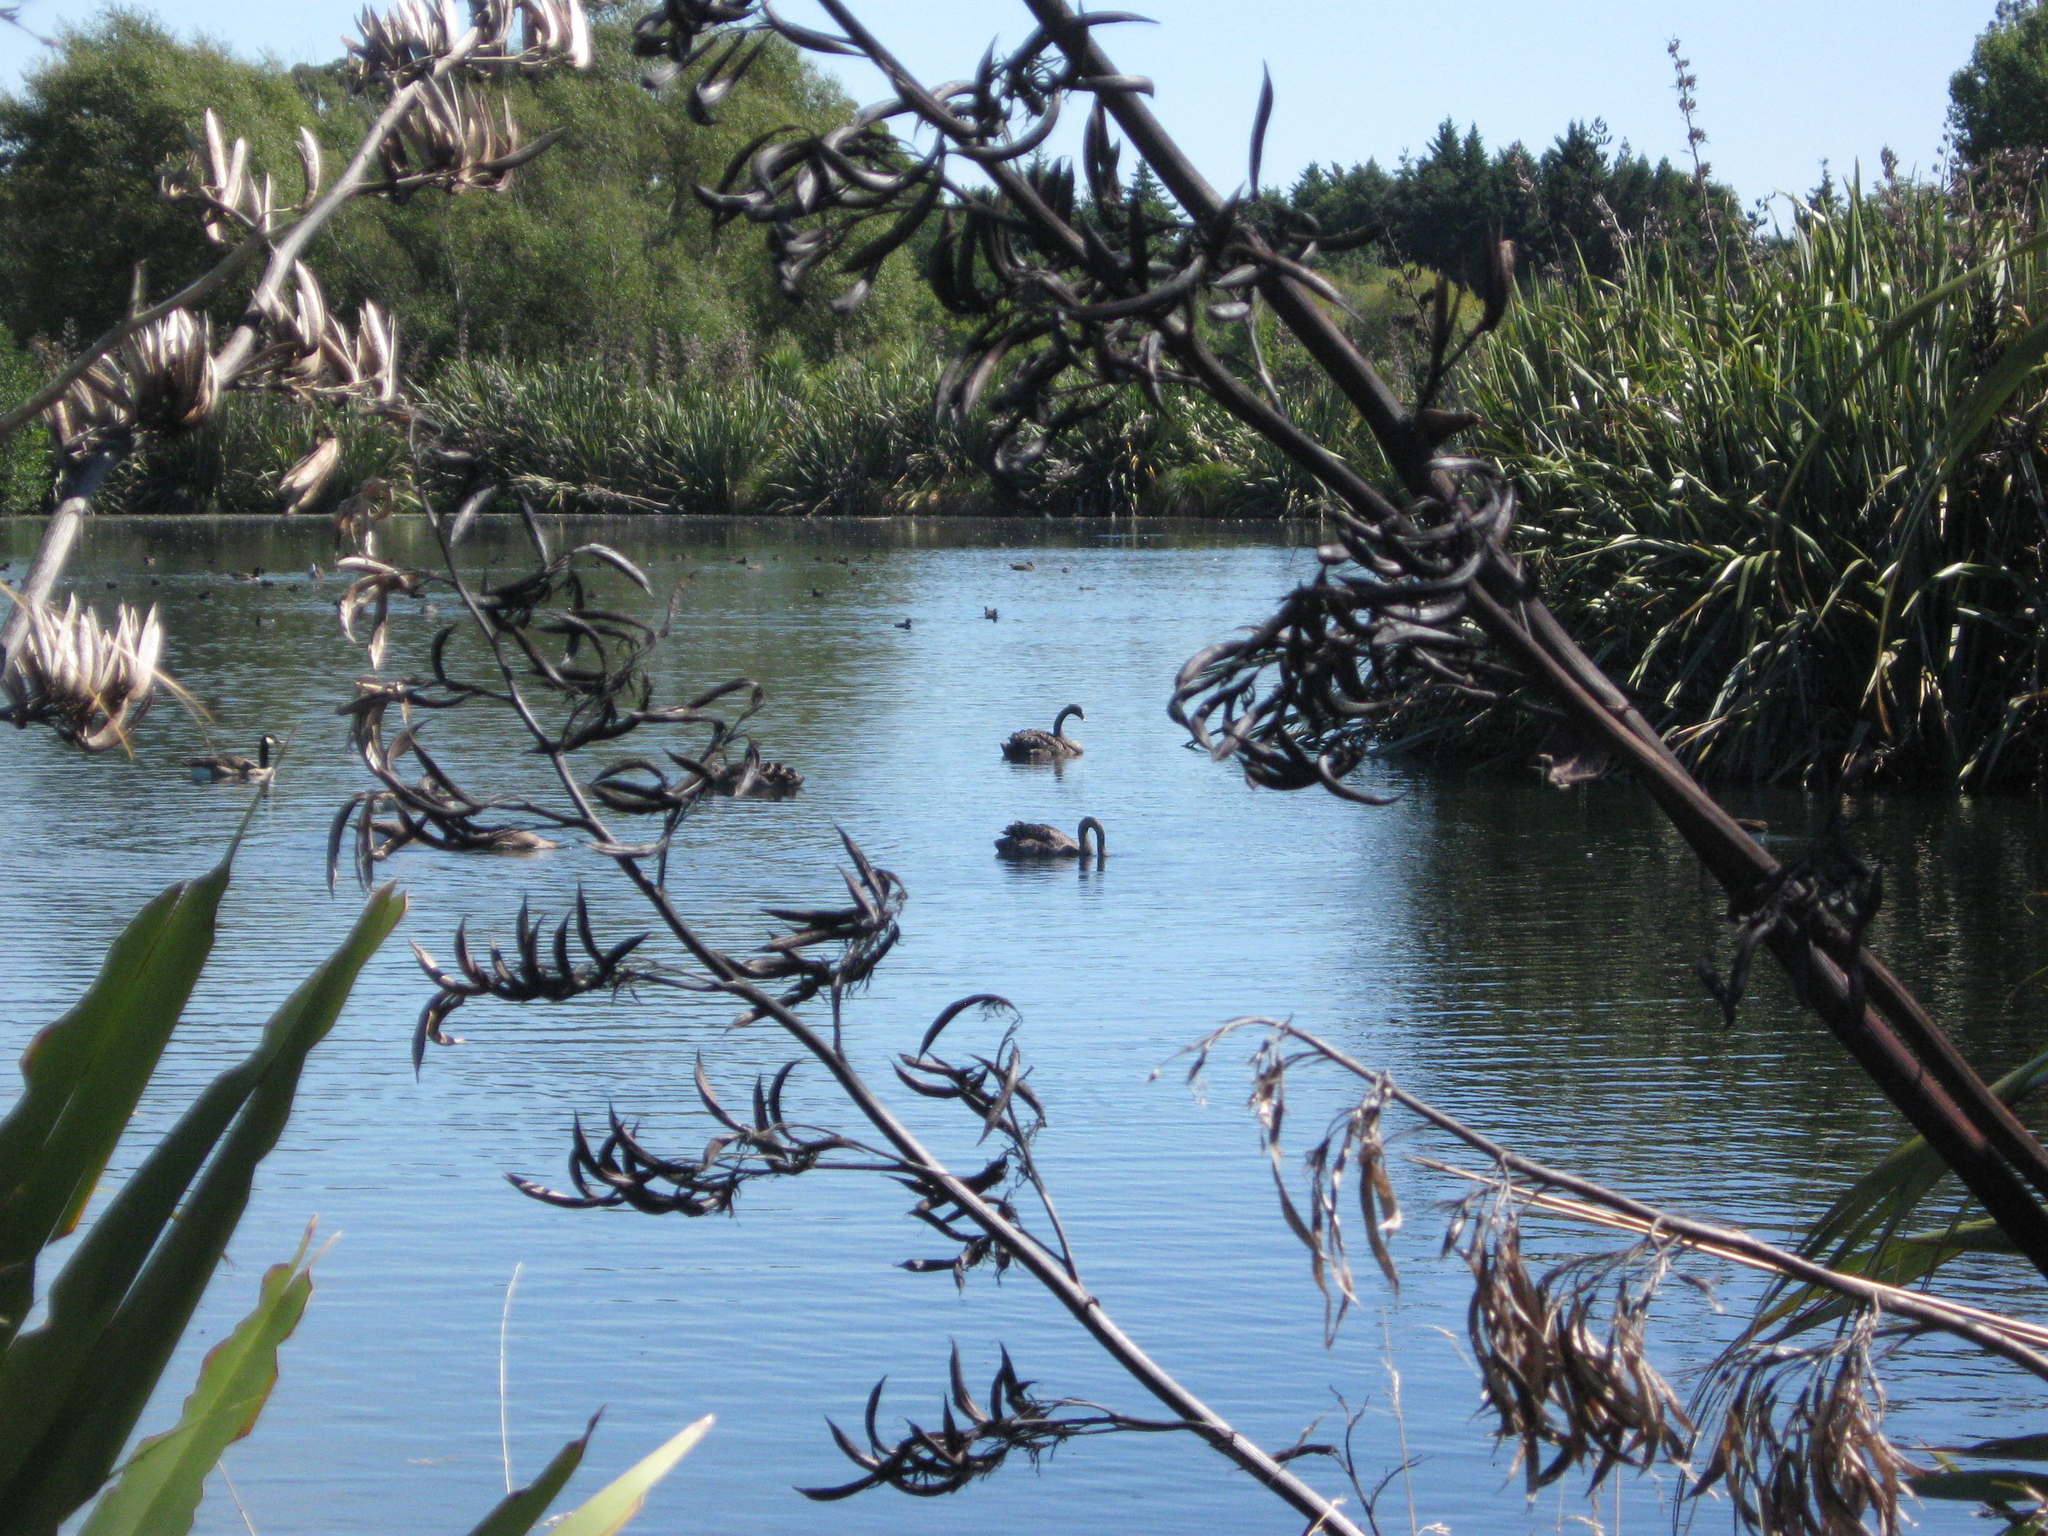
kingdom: Animalia
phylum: Chordata
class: Aves
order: Anseriformes
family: Anatidae
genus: Cygnus
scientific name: Cygnus atratus
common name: Black swan
